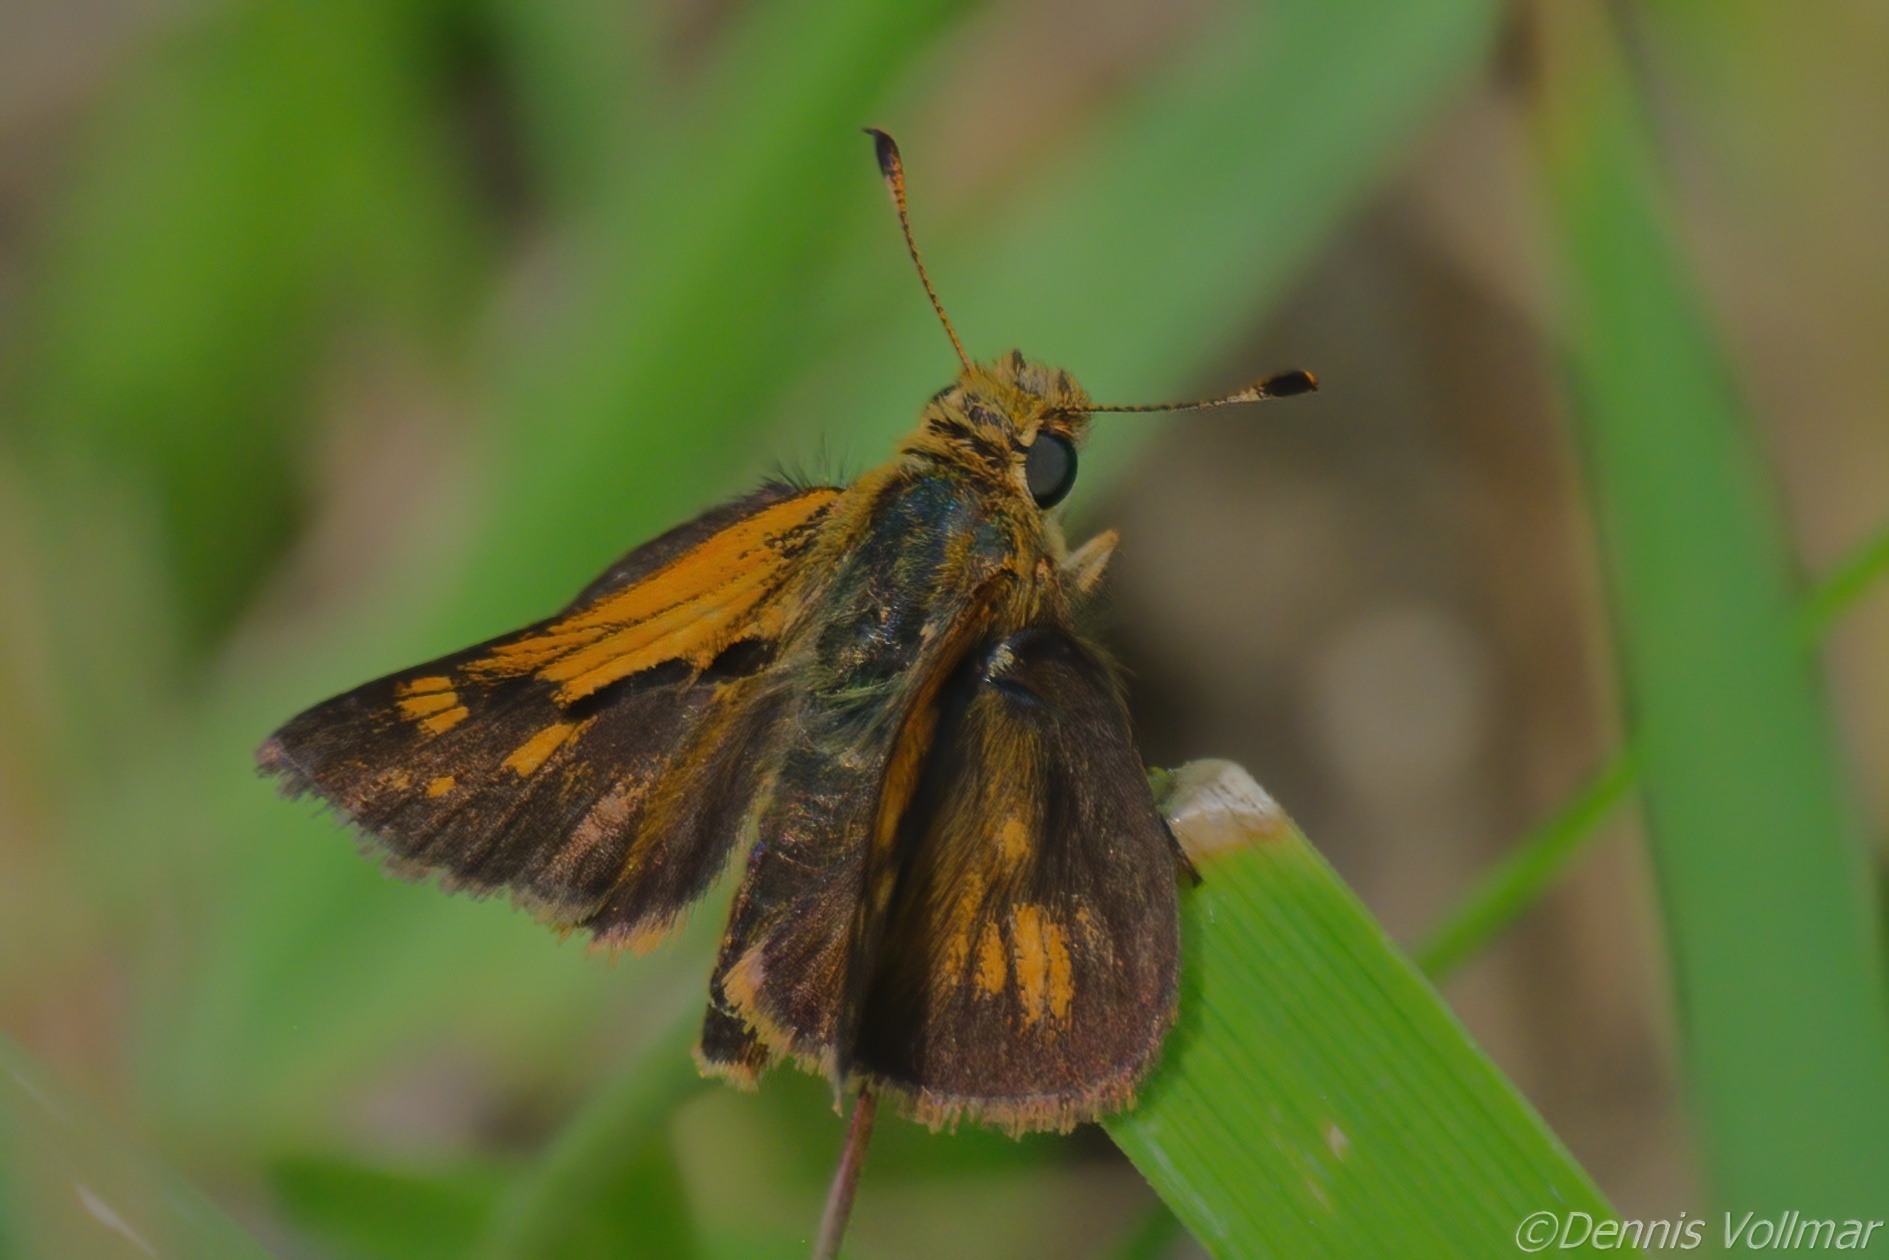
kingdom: Animalia
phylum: Arthropoda
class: Insecta
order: Lepidoptera
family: Hesperiidae
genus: Polites
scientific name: Polites coras
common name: Peck's skipper
